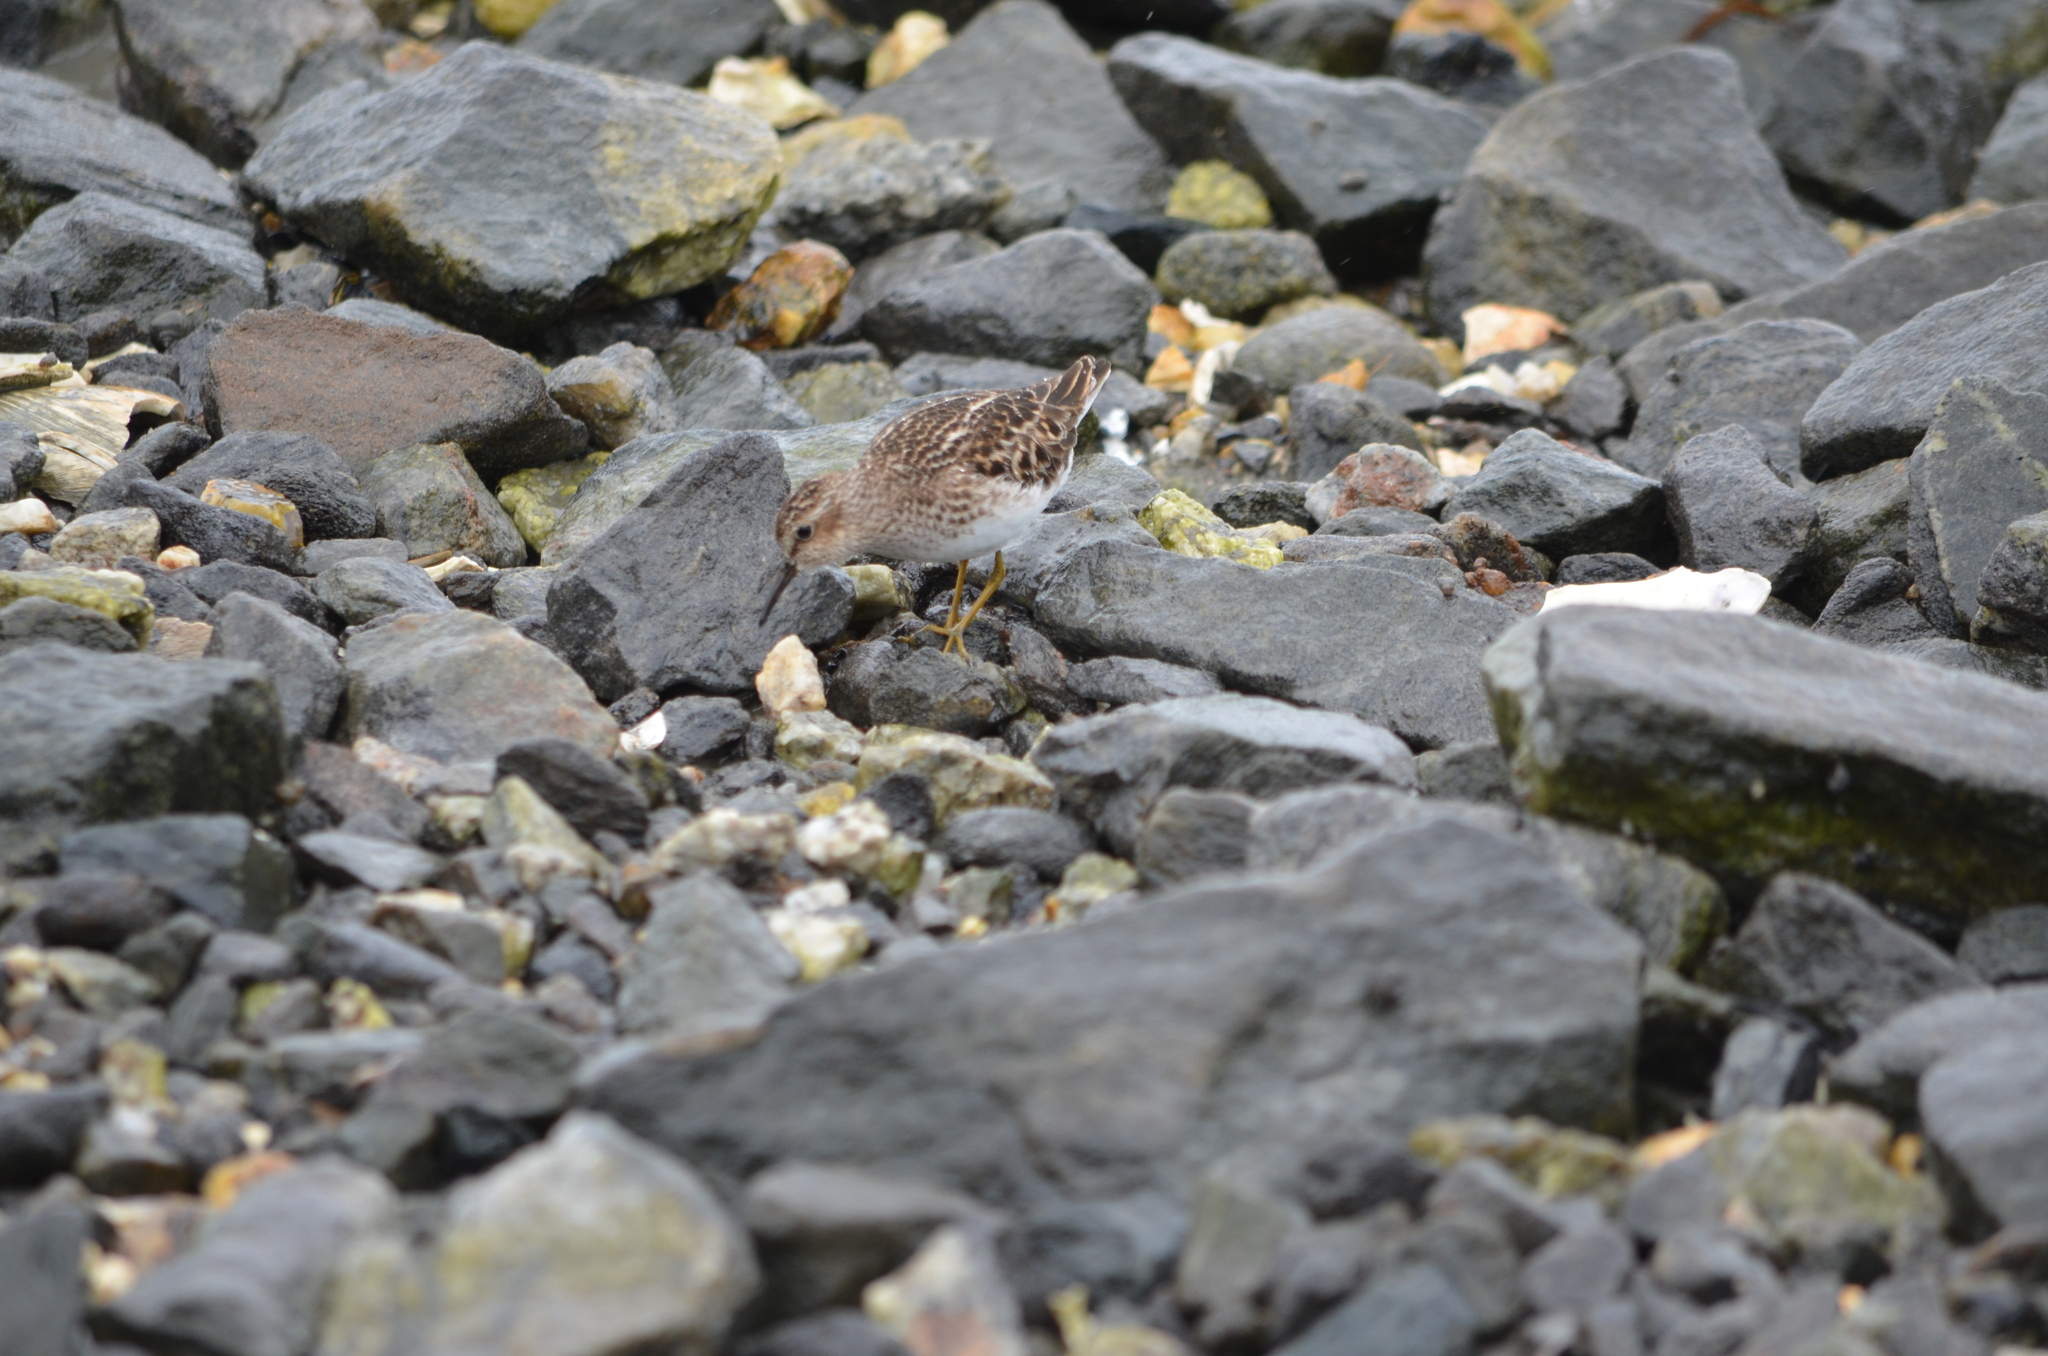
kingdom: Animalia
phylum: Chordata
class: Aves
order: Charadriiformes
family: Scolopacidae
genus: Calidris
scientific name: Calidris minutilla
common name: Least sandpiper
